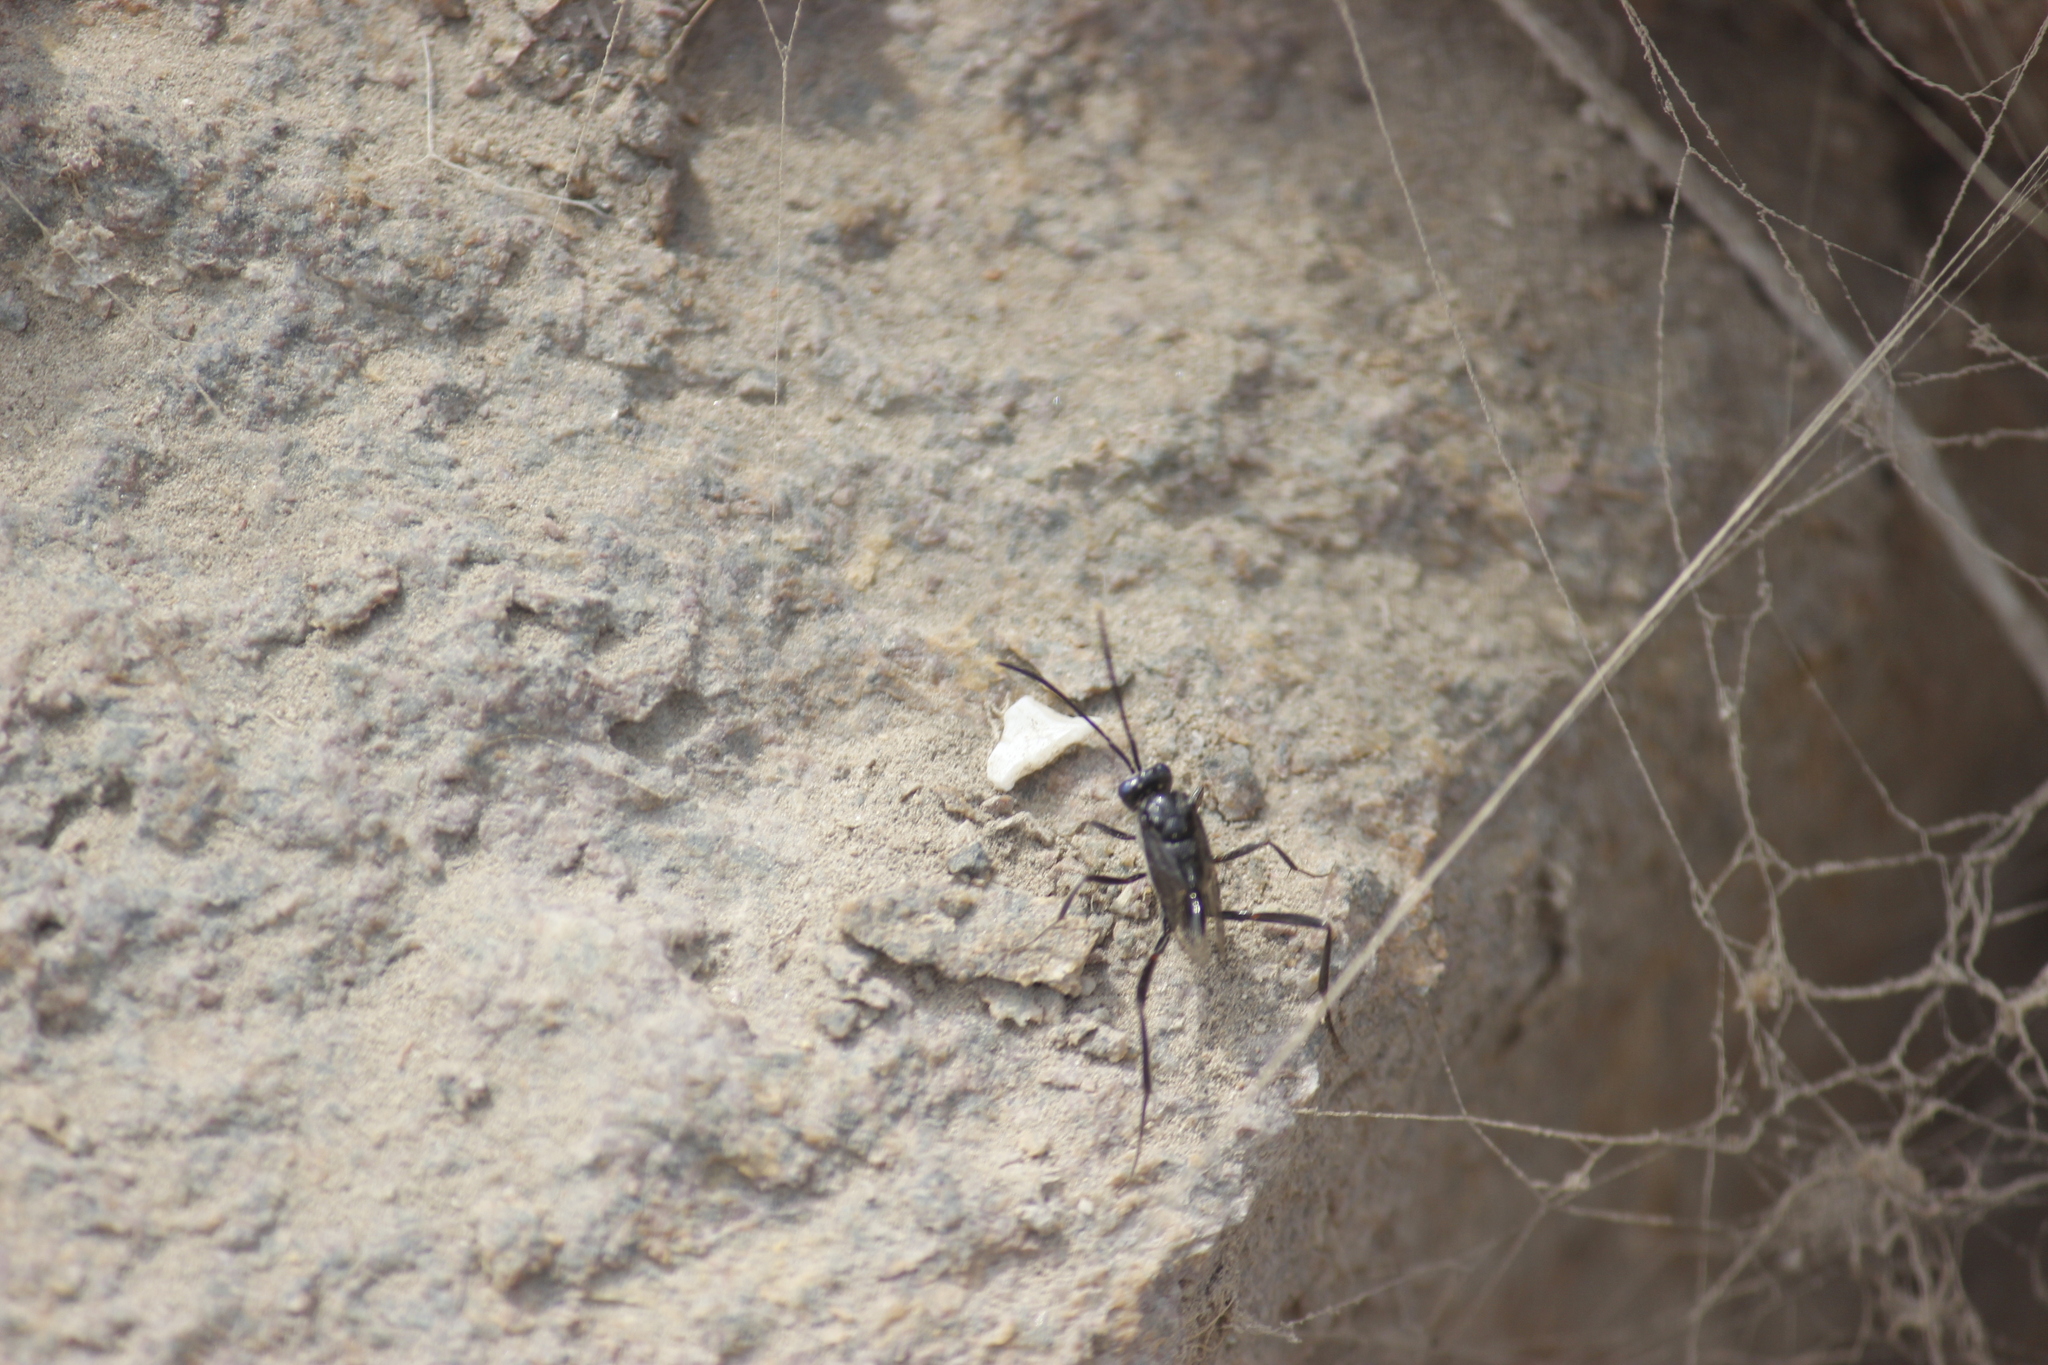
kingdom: Animalia
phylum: Arthropoda
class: Insecta
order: Hymenoptera
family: Evaniidae
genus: Evania
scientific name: Evania appendigaster
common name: Ensign wasp
